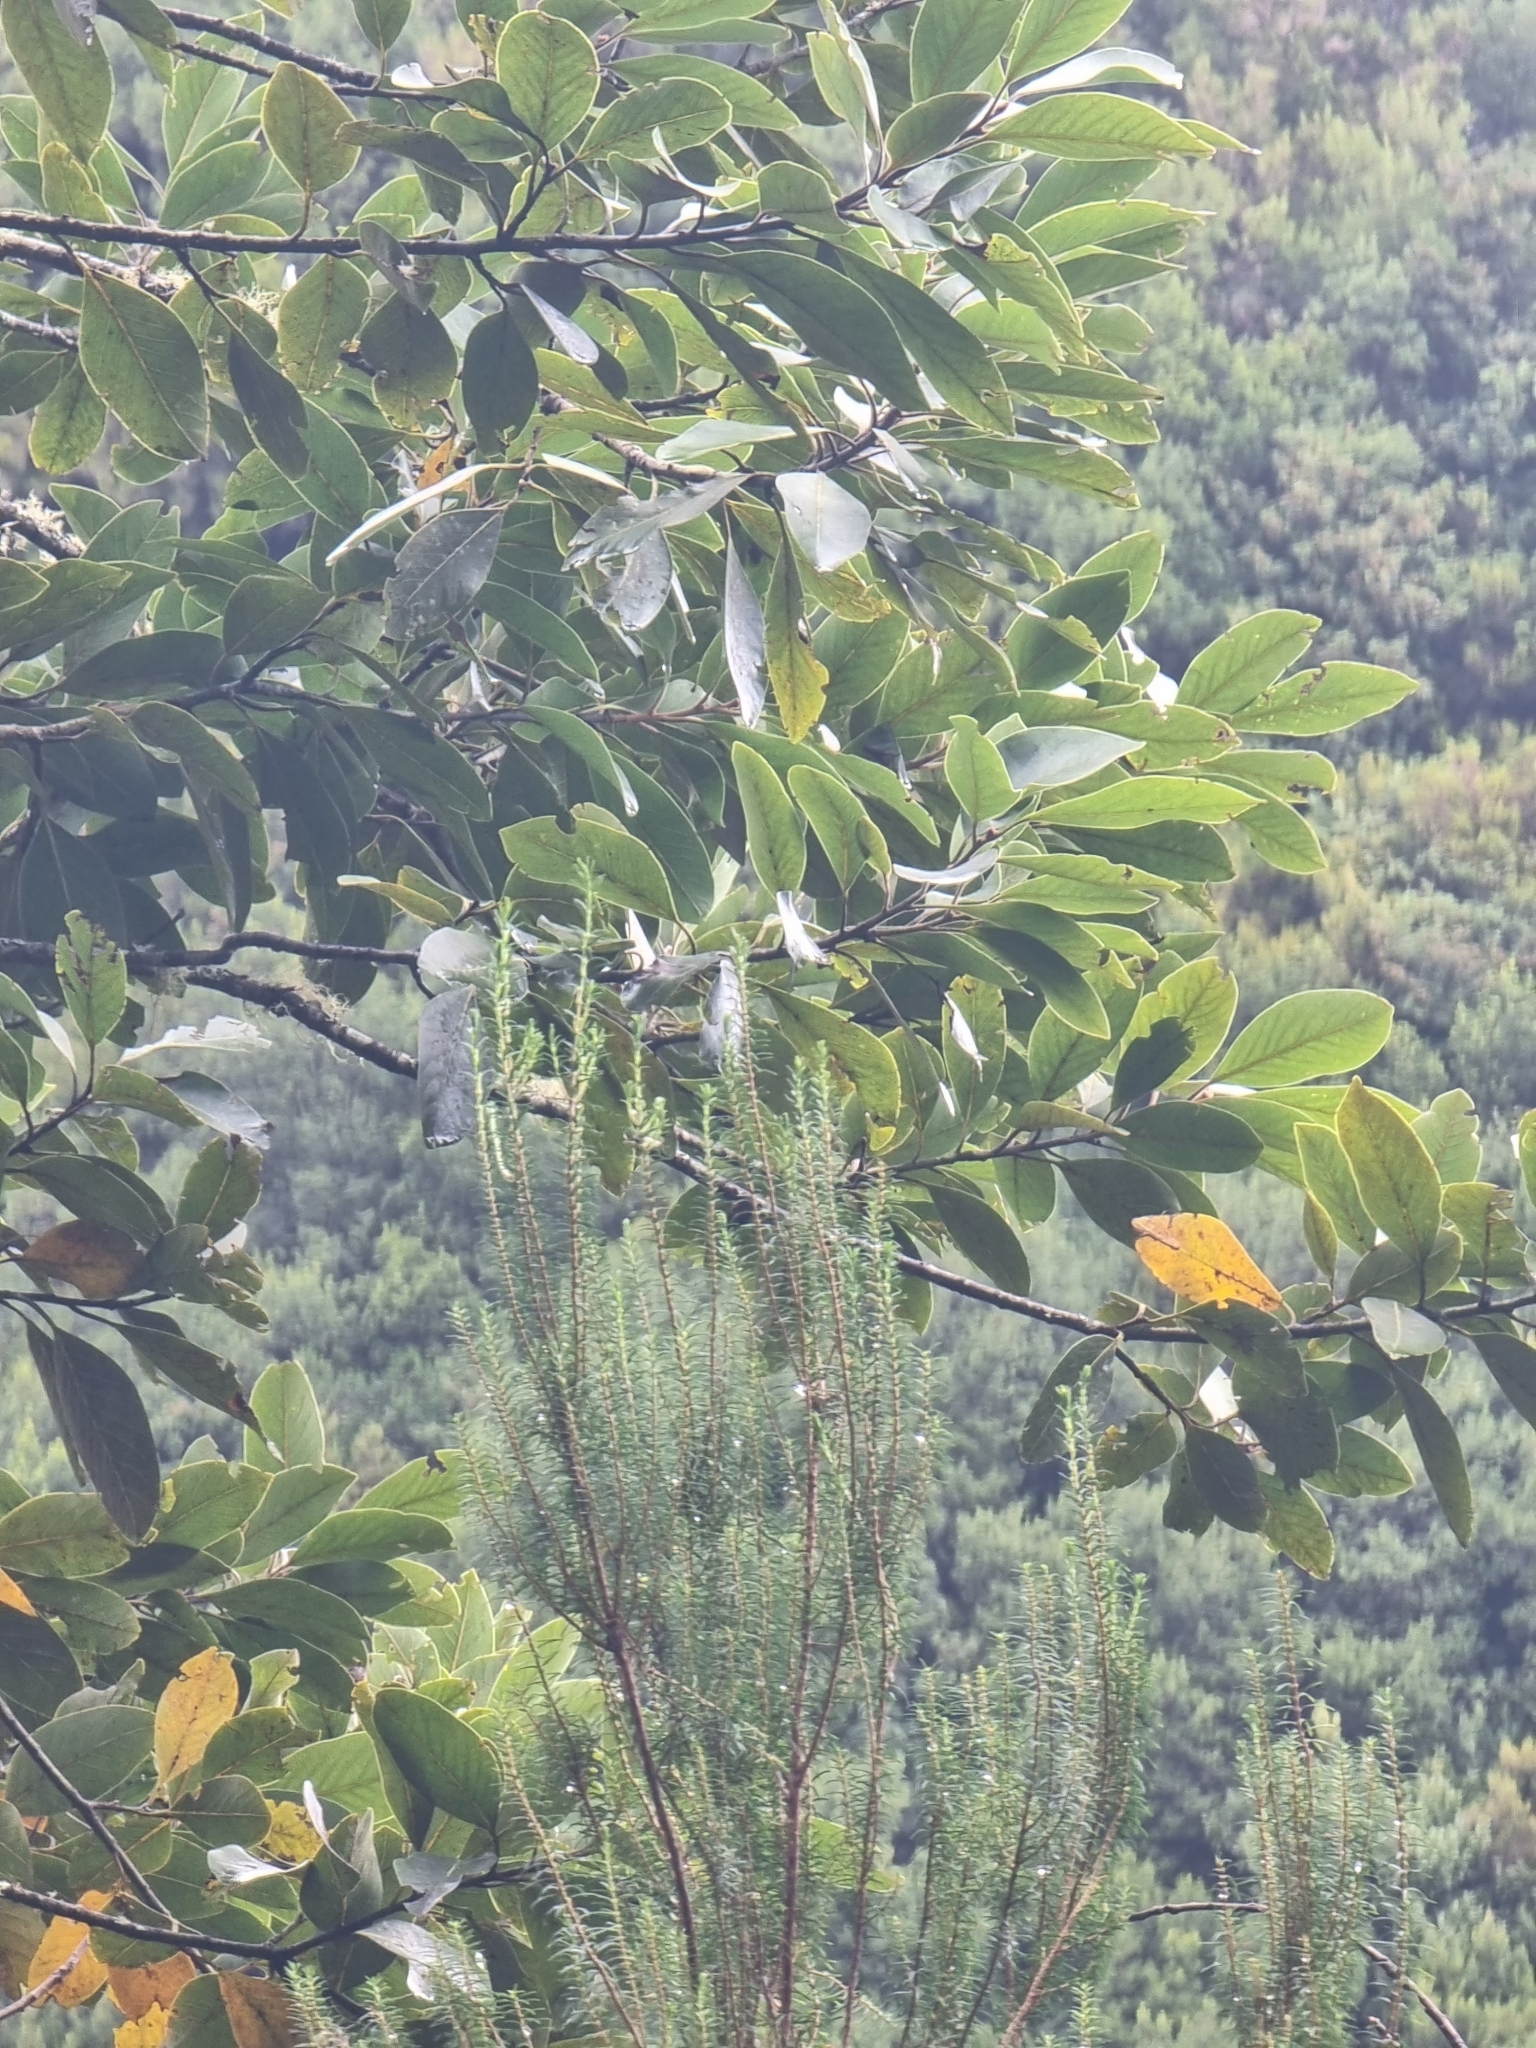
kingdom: Plantae
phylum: Tracheophyta
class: Magnoliopsida
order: Laurales
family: Lauraceae
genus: Laurus
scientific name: Laurus novocanariensis
